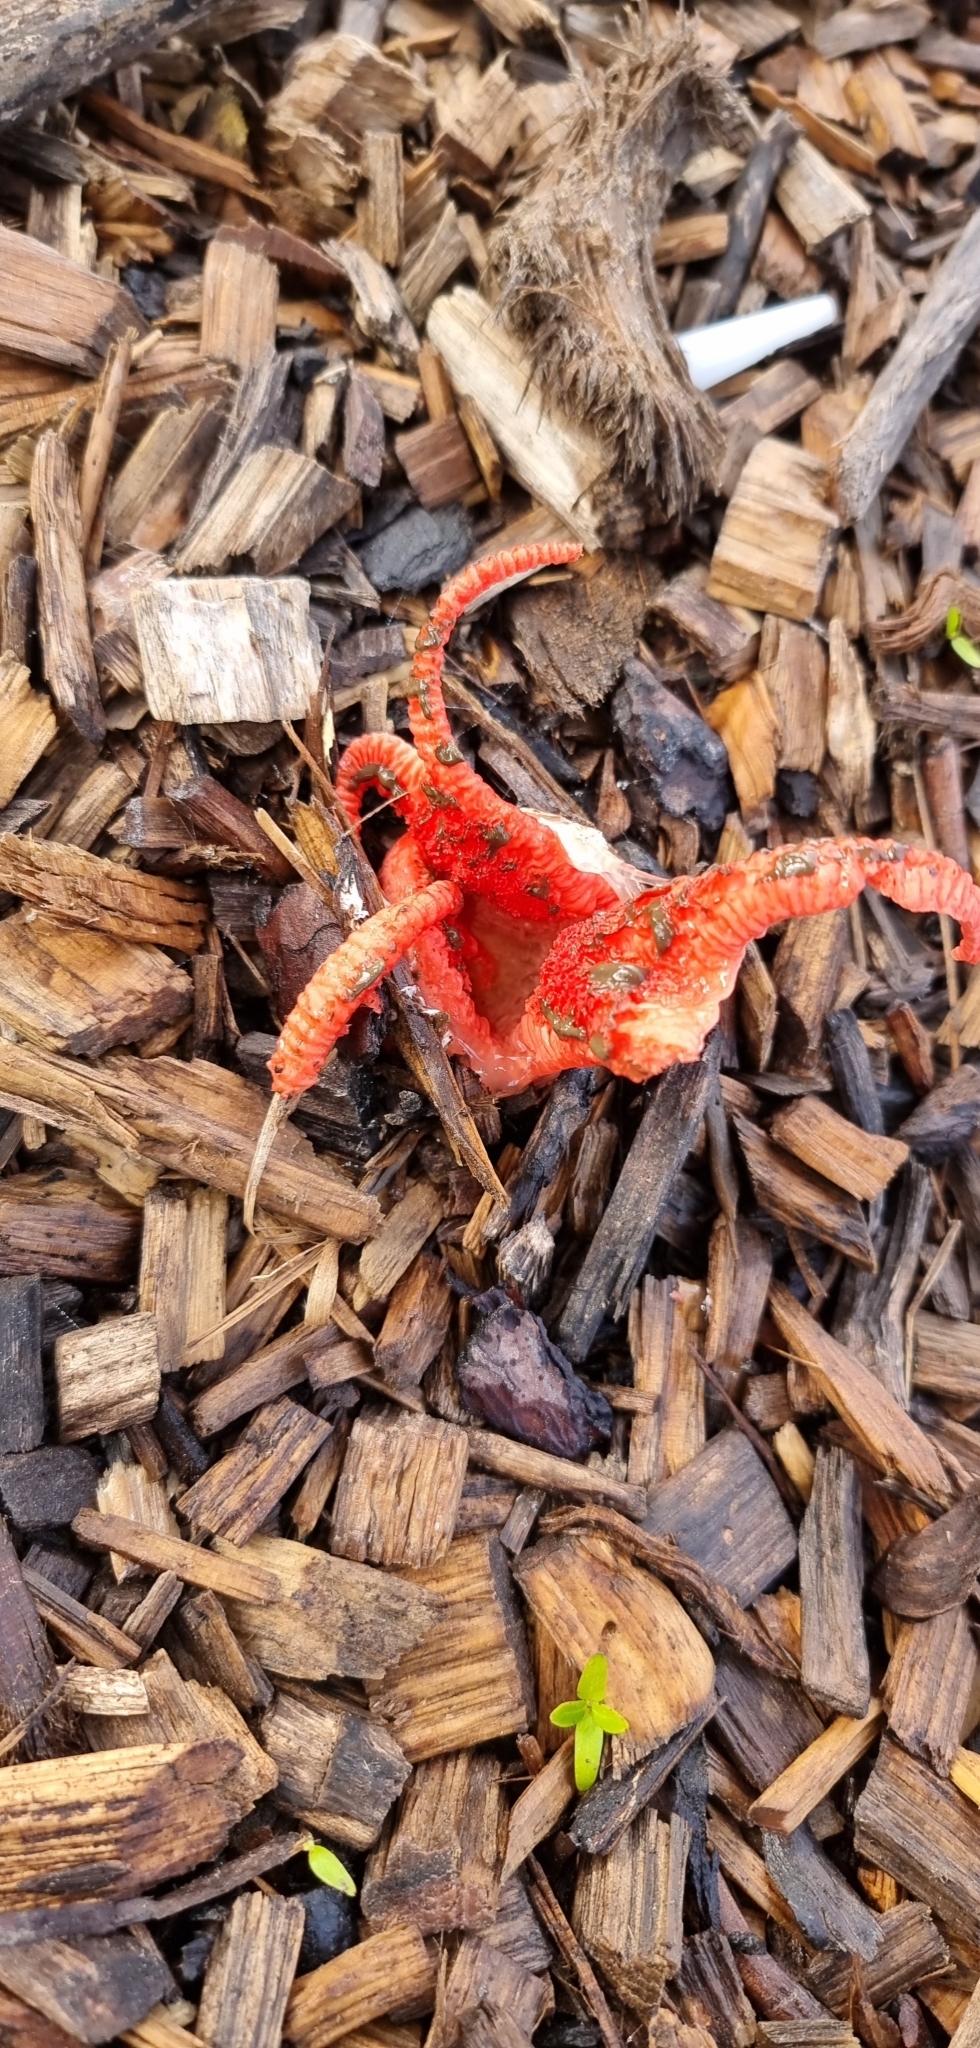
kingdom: Fungi
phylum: Basidiomycota
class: Agaricomycetes
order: Phallales
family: Phallaceae
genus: Clathrus
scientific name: Clathrus archeri
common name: Devil's fingers
